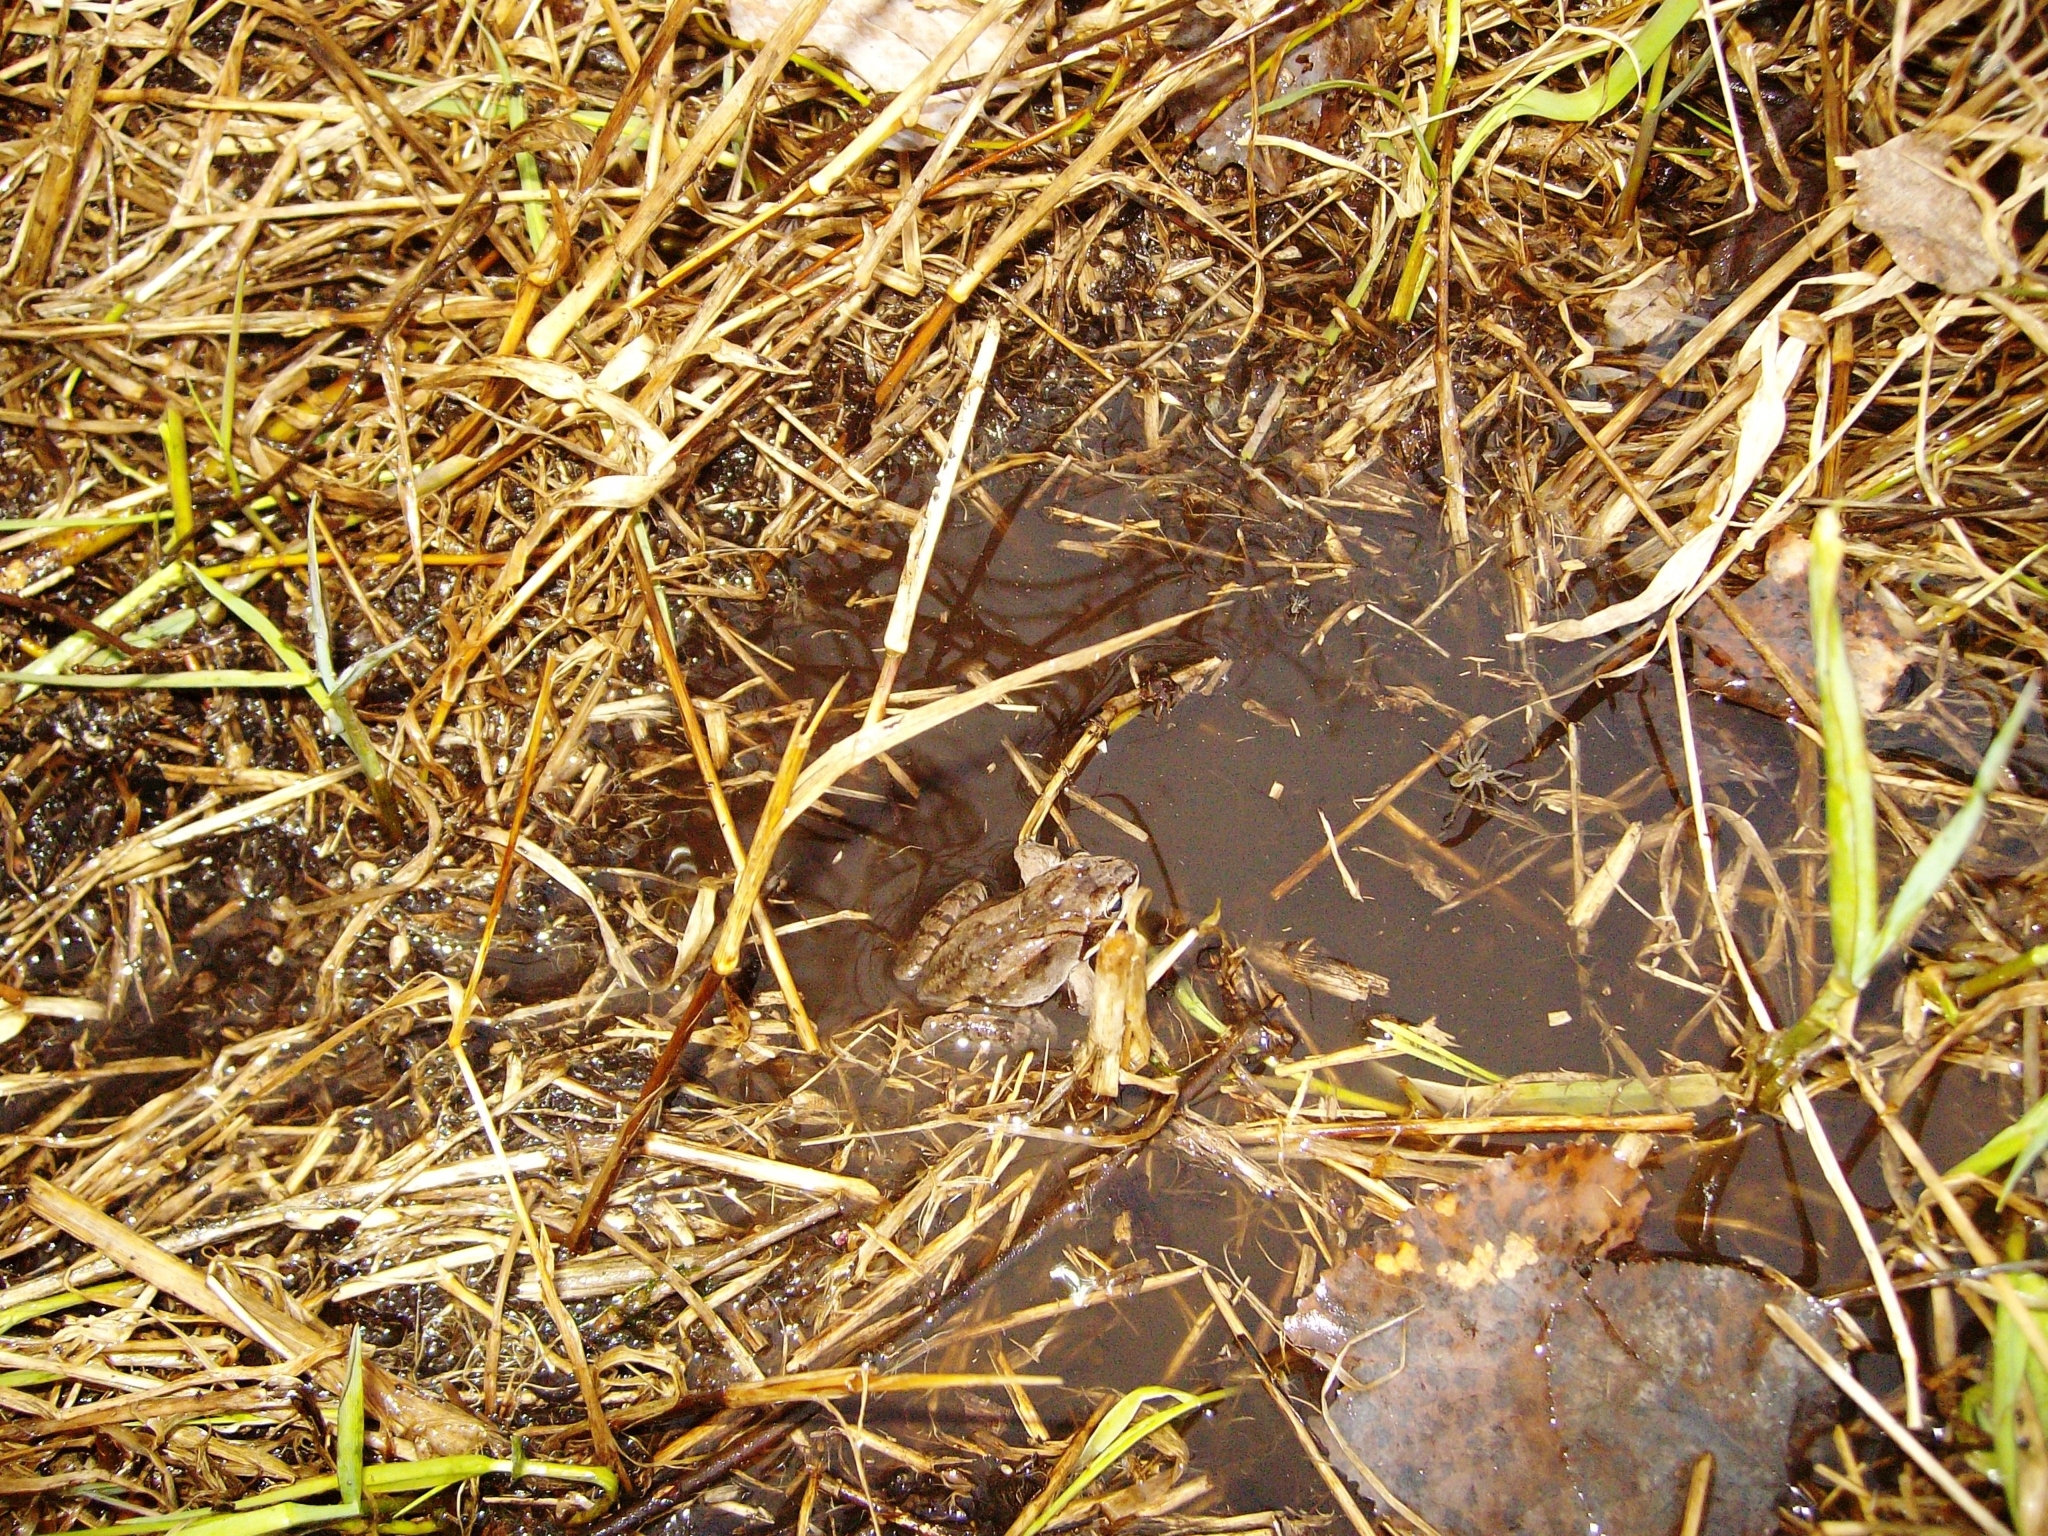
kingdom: Animalia
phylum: Chordata
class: Amphibia
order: Anura
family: Ranidae
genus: Lithobates
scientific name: Lithobates sylvaticus
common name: Wood frog
